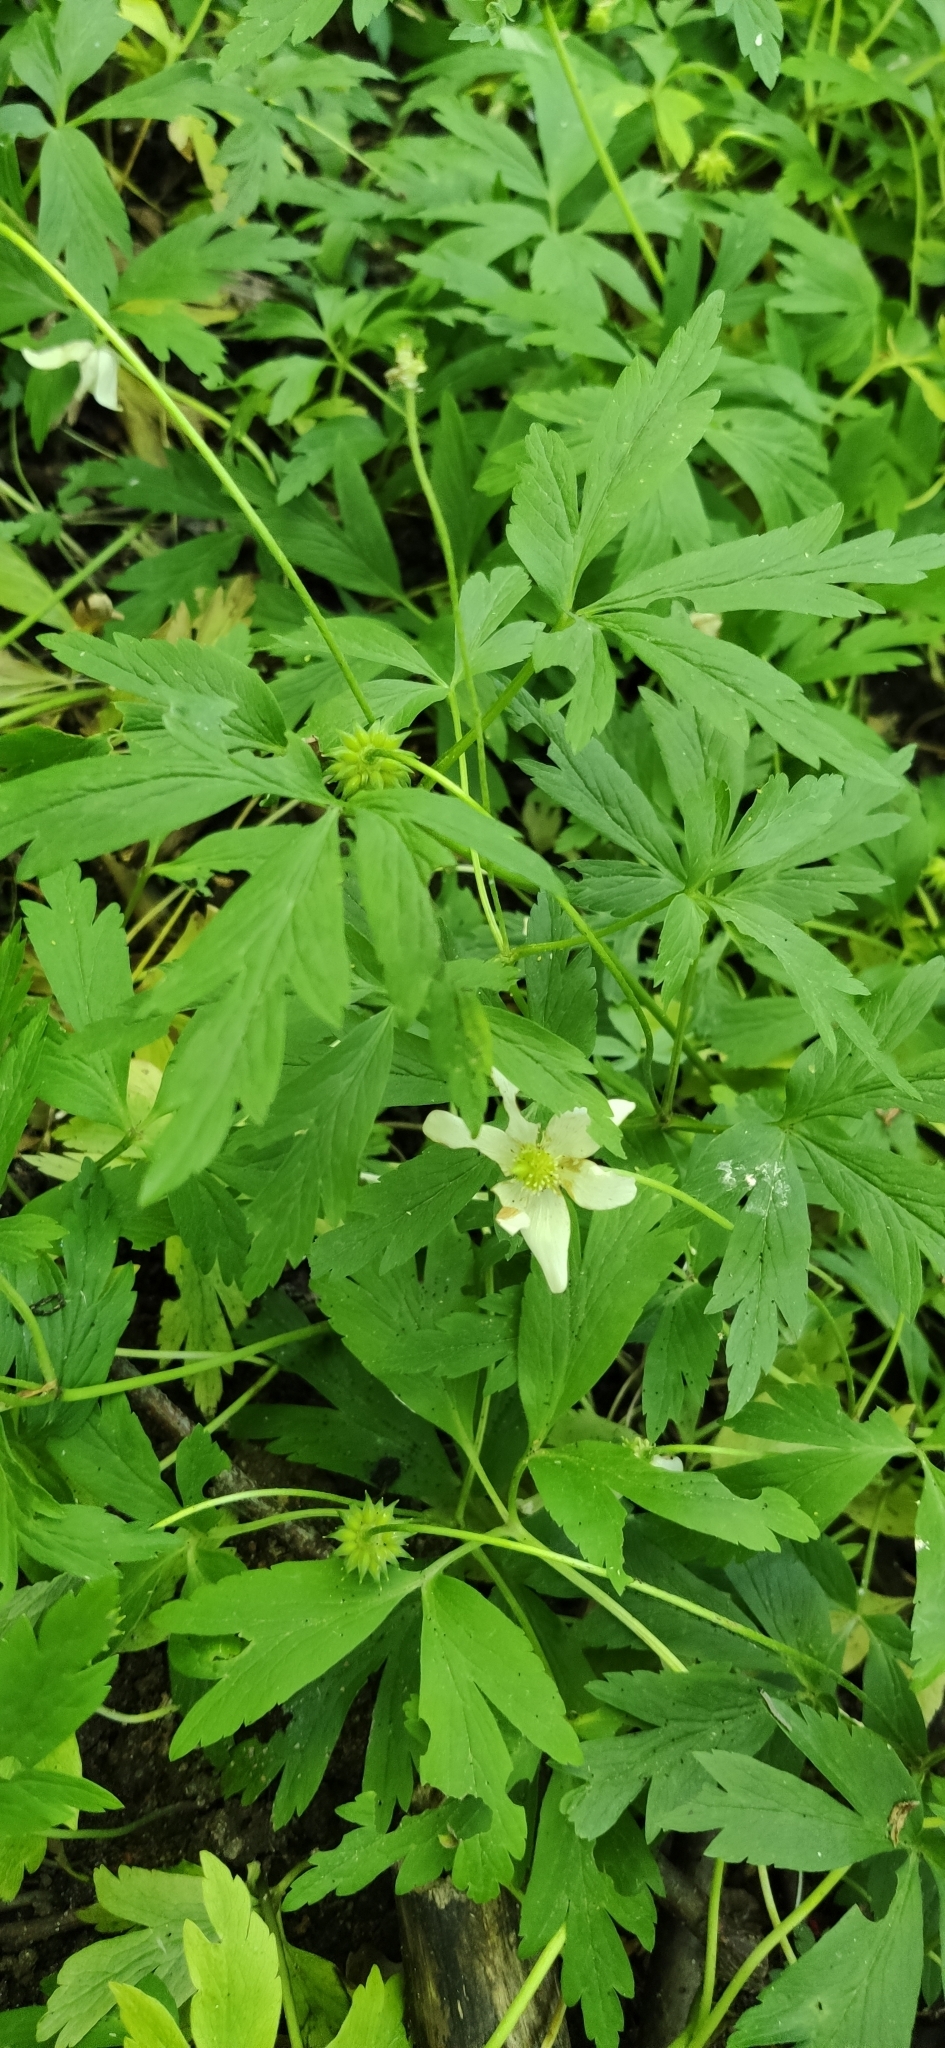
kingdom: Plantae
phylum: Tracheophyta
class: Magnoliopsida
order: Ranunculales
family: Ranunculaceae
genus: Anemone
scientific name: Anemone nemorosa
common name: Wood anemone
